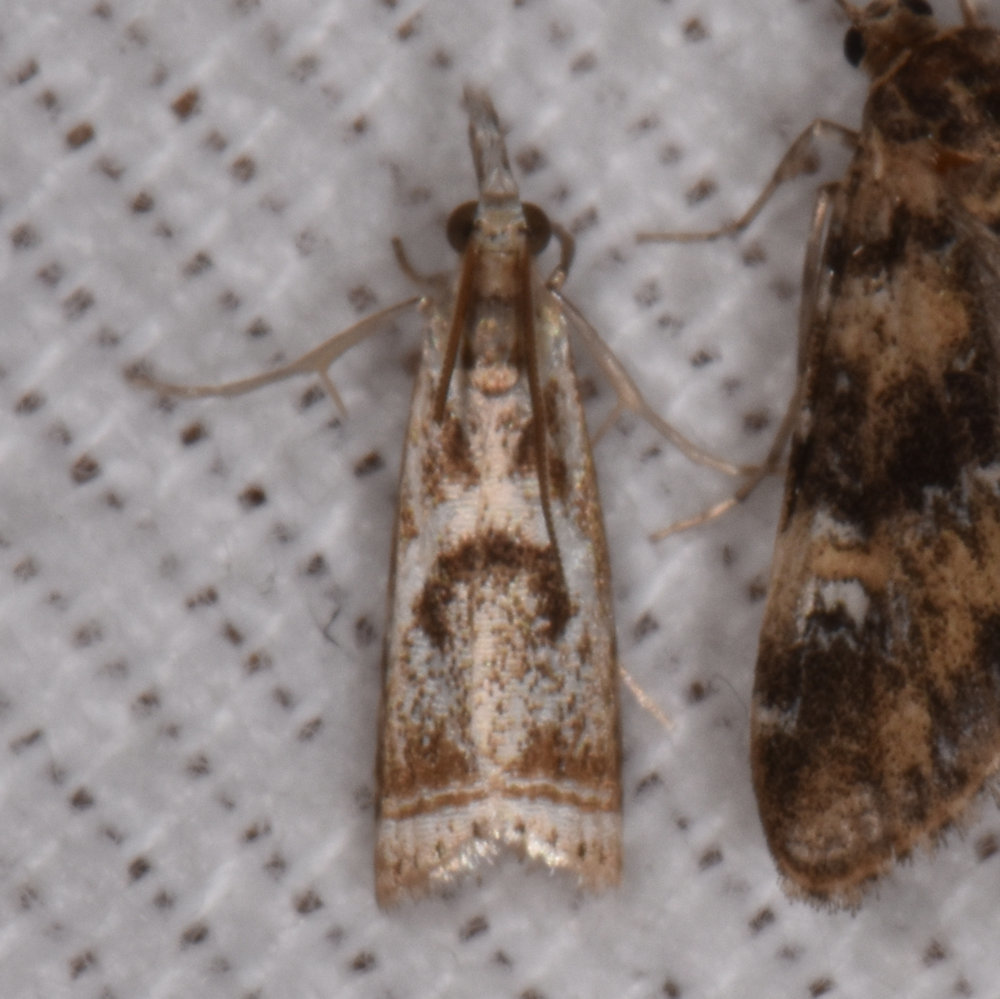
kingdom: Animalia
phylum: Arthropoda
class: Insecta
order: Lepidoptera
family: Crambidae
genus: Microcrambus
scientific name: Microcrambus elegans
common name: Elegant grass-veneer
